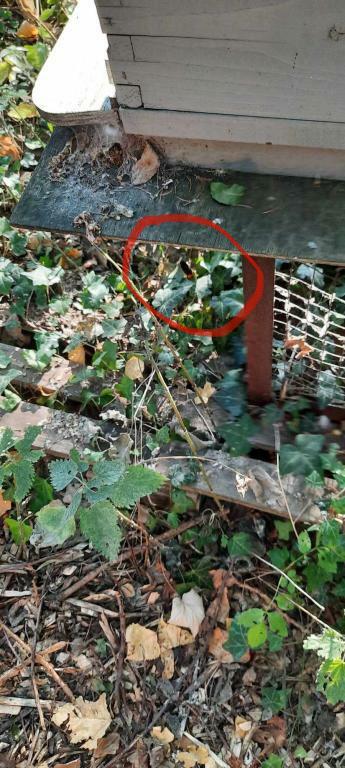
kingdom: Animalia
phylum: Arthropoda
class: Insecta
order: Hymenoptera
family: Vespidae
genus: Vespa
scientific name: Vespa velutina
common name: Asian hornet
